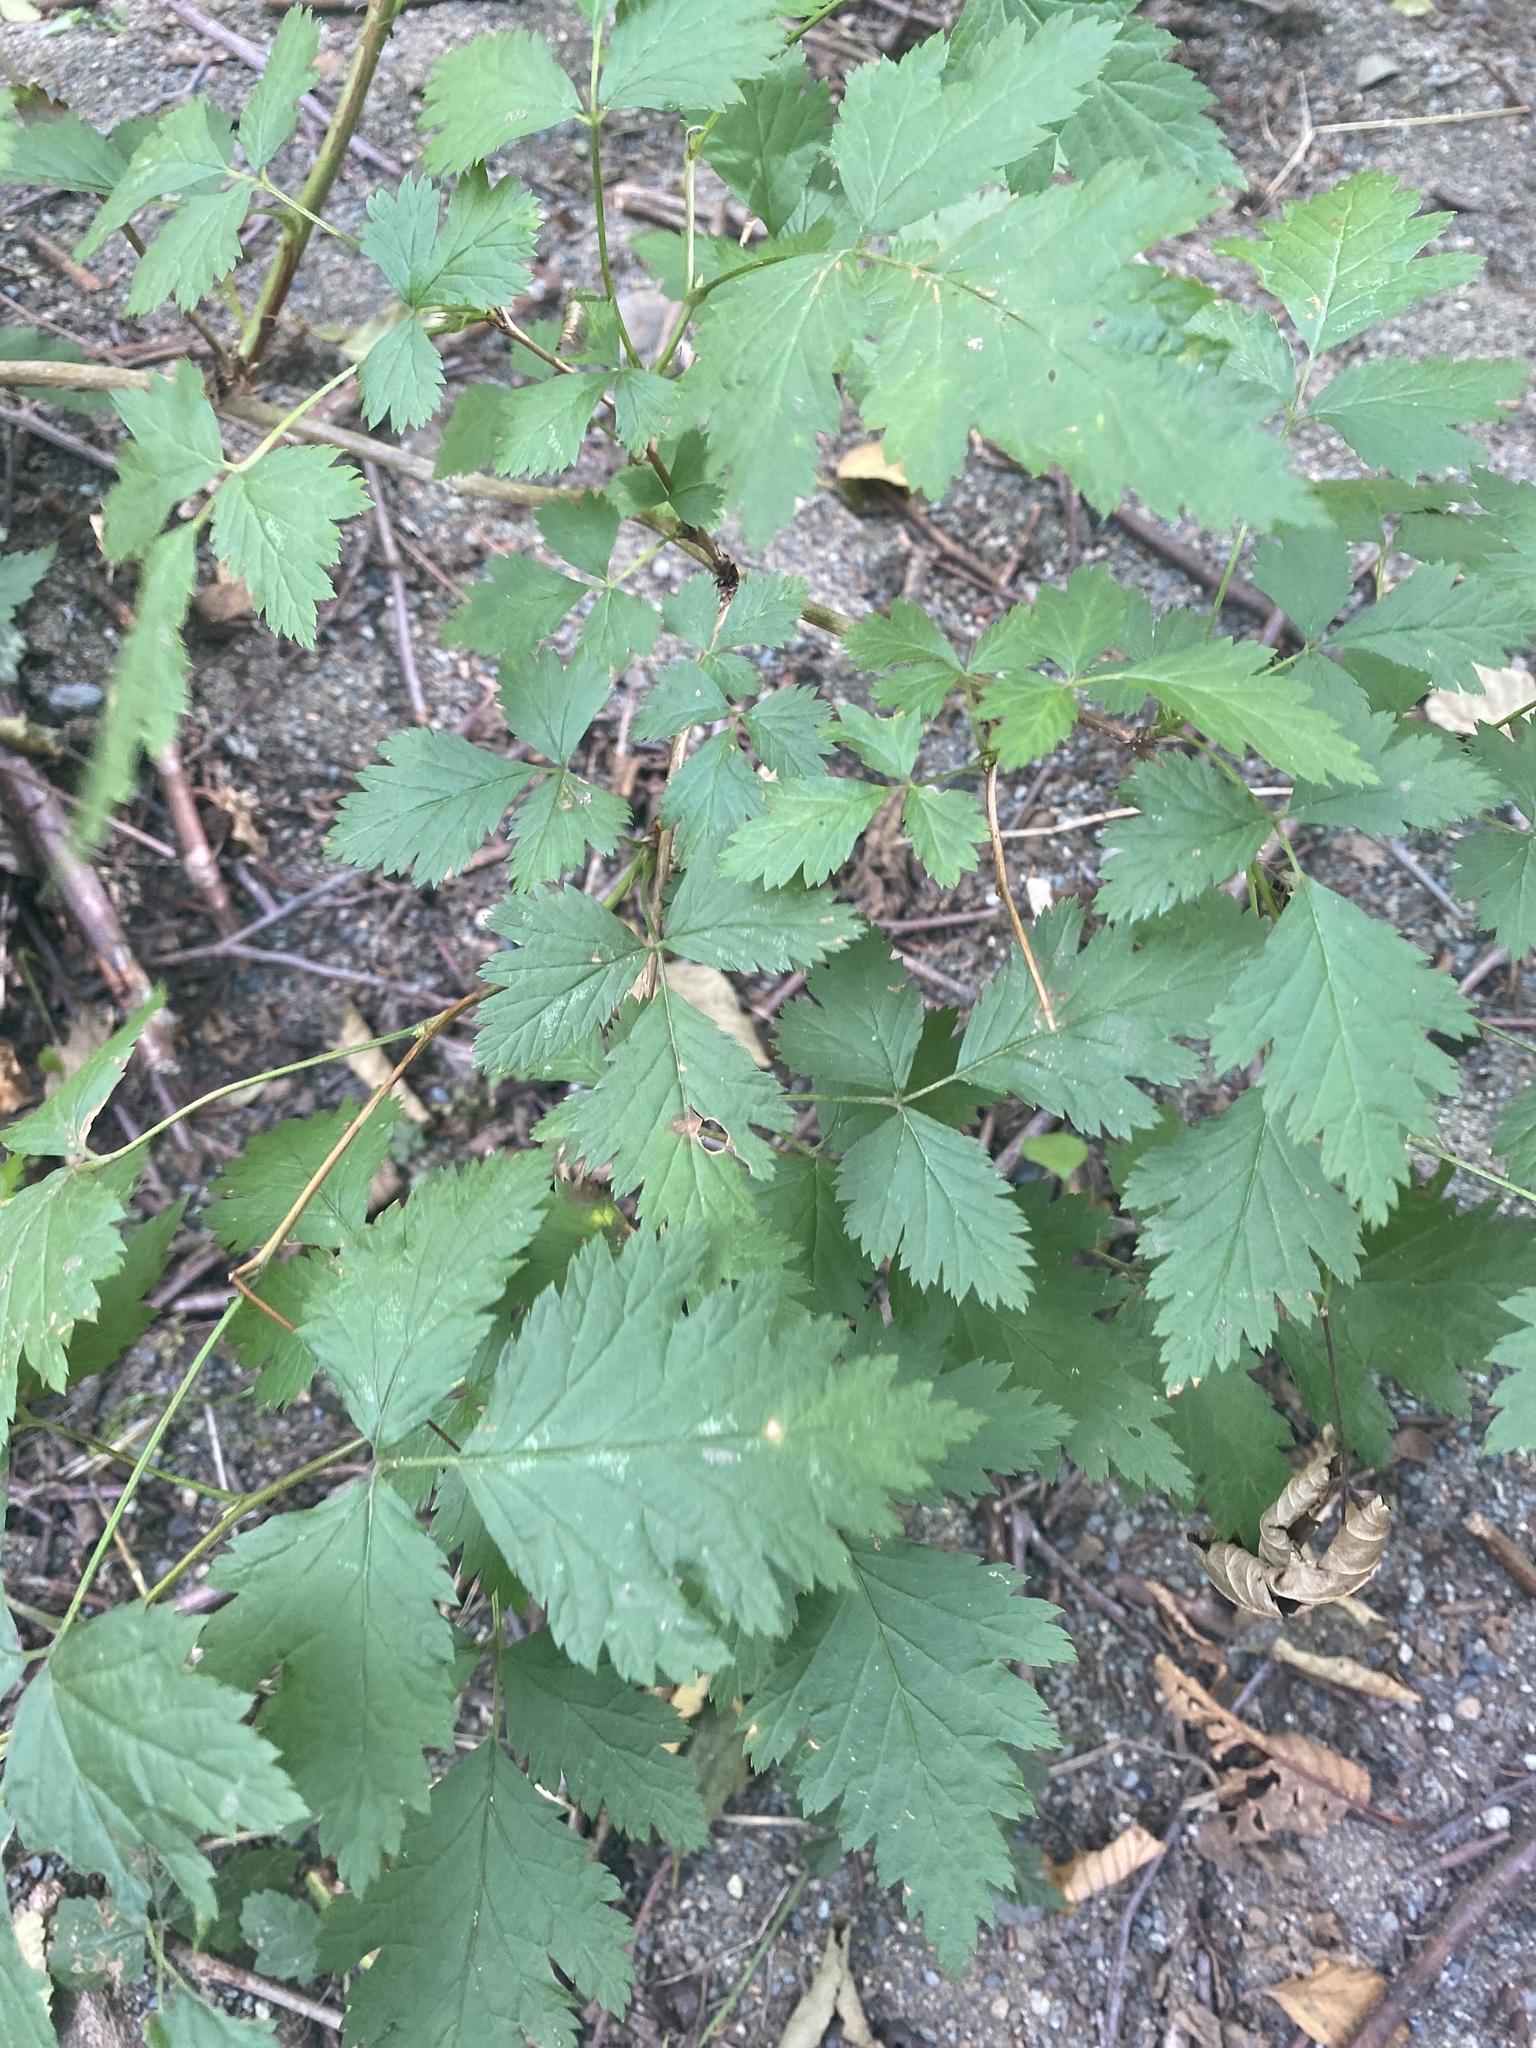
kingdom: Plantae
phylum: Tracheophyta
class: Magnoliopsida
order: Rosales
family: Rosaceae
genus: Rubus
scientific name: Rubus spectabilis
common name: Salmonberry
